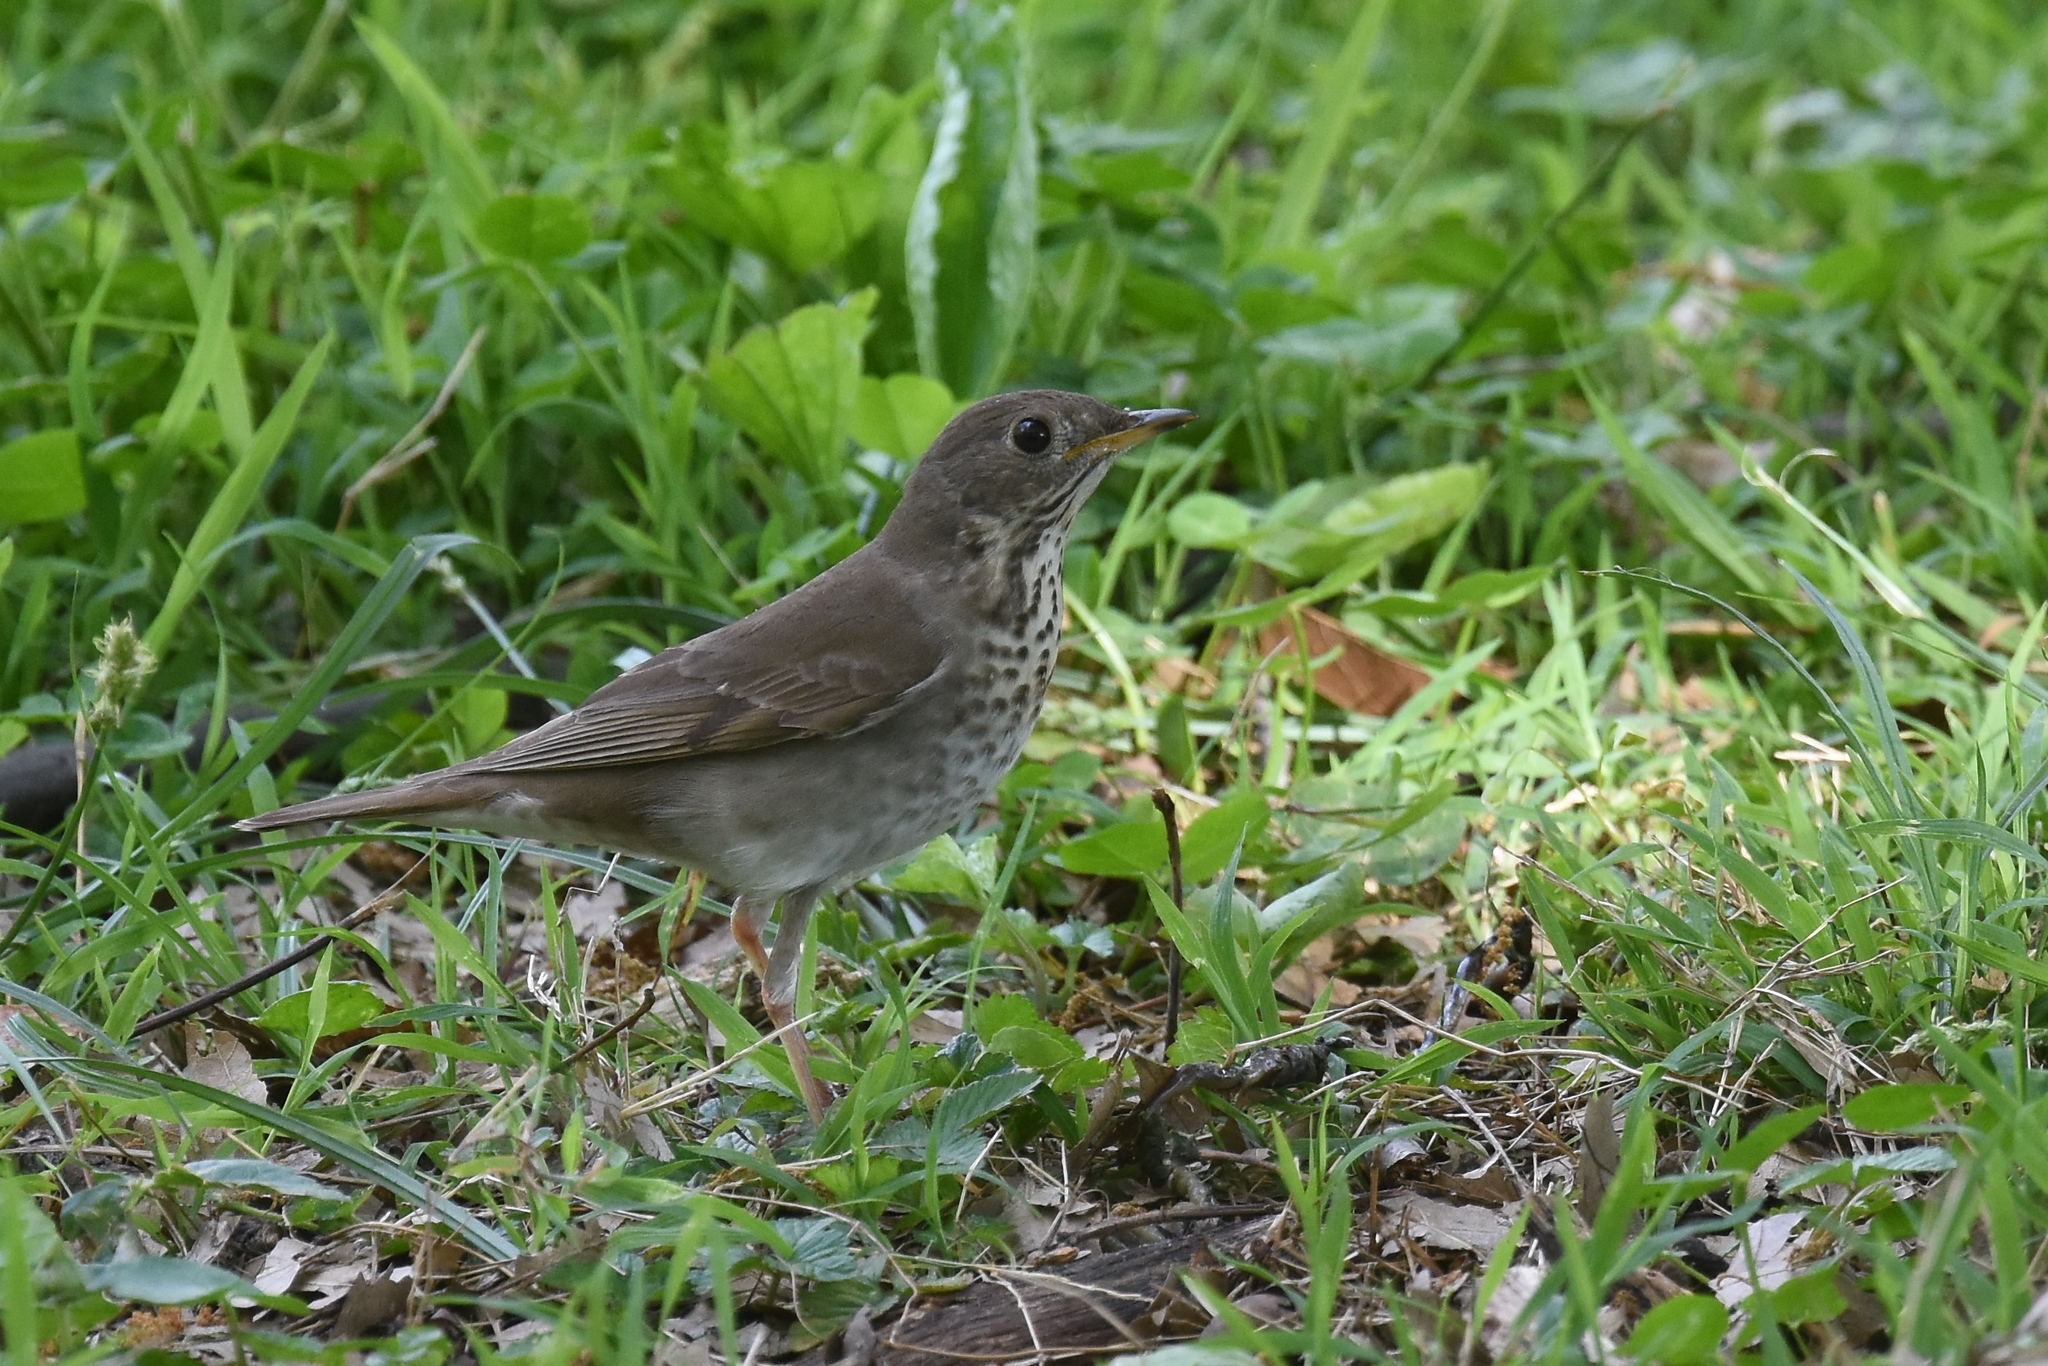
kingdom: Animalia
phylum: Chordata
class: Aves
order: Passeriformes
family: Turdidae
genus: Catharus
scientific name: Catharus minimus
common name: Grey-cheeked thrush
